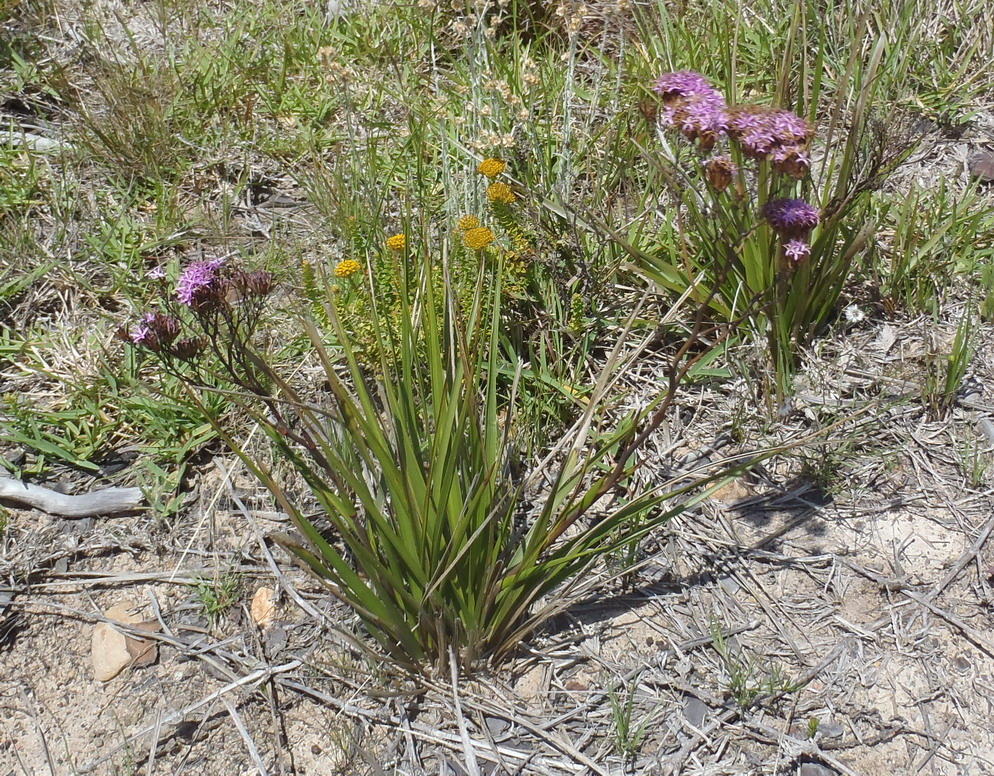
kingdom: Plantae
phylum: Tracheophyta
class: Magnoliopsida
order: Asterales
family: Asteraceae
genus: Corymbium
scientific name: Corymbium glabrum
